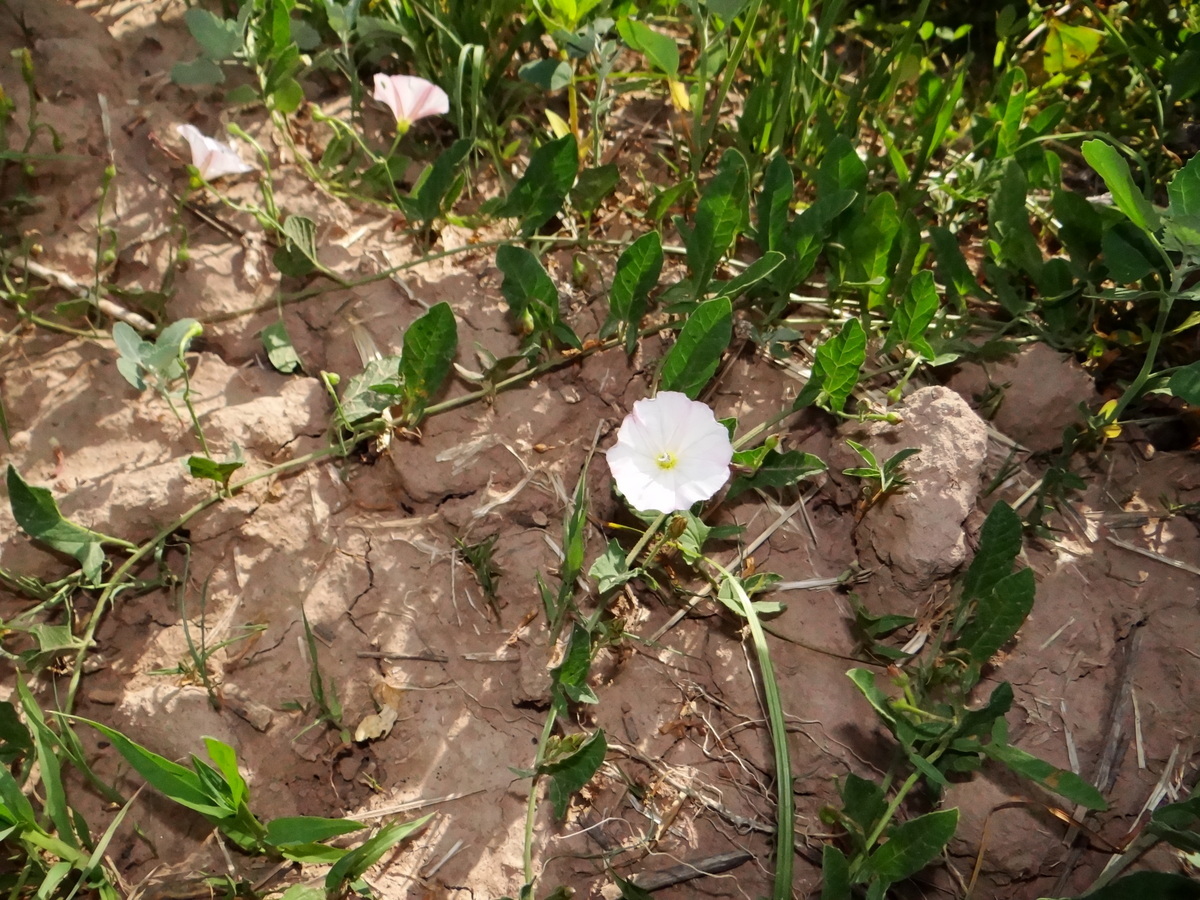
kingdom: Plantae
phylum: Tracheophyta
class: Magnoliopsida
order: Solanales
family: Convolvulaceae
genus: Convolvulus
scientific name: Convolvulus arvensis
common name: Field bindweed
